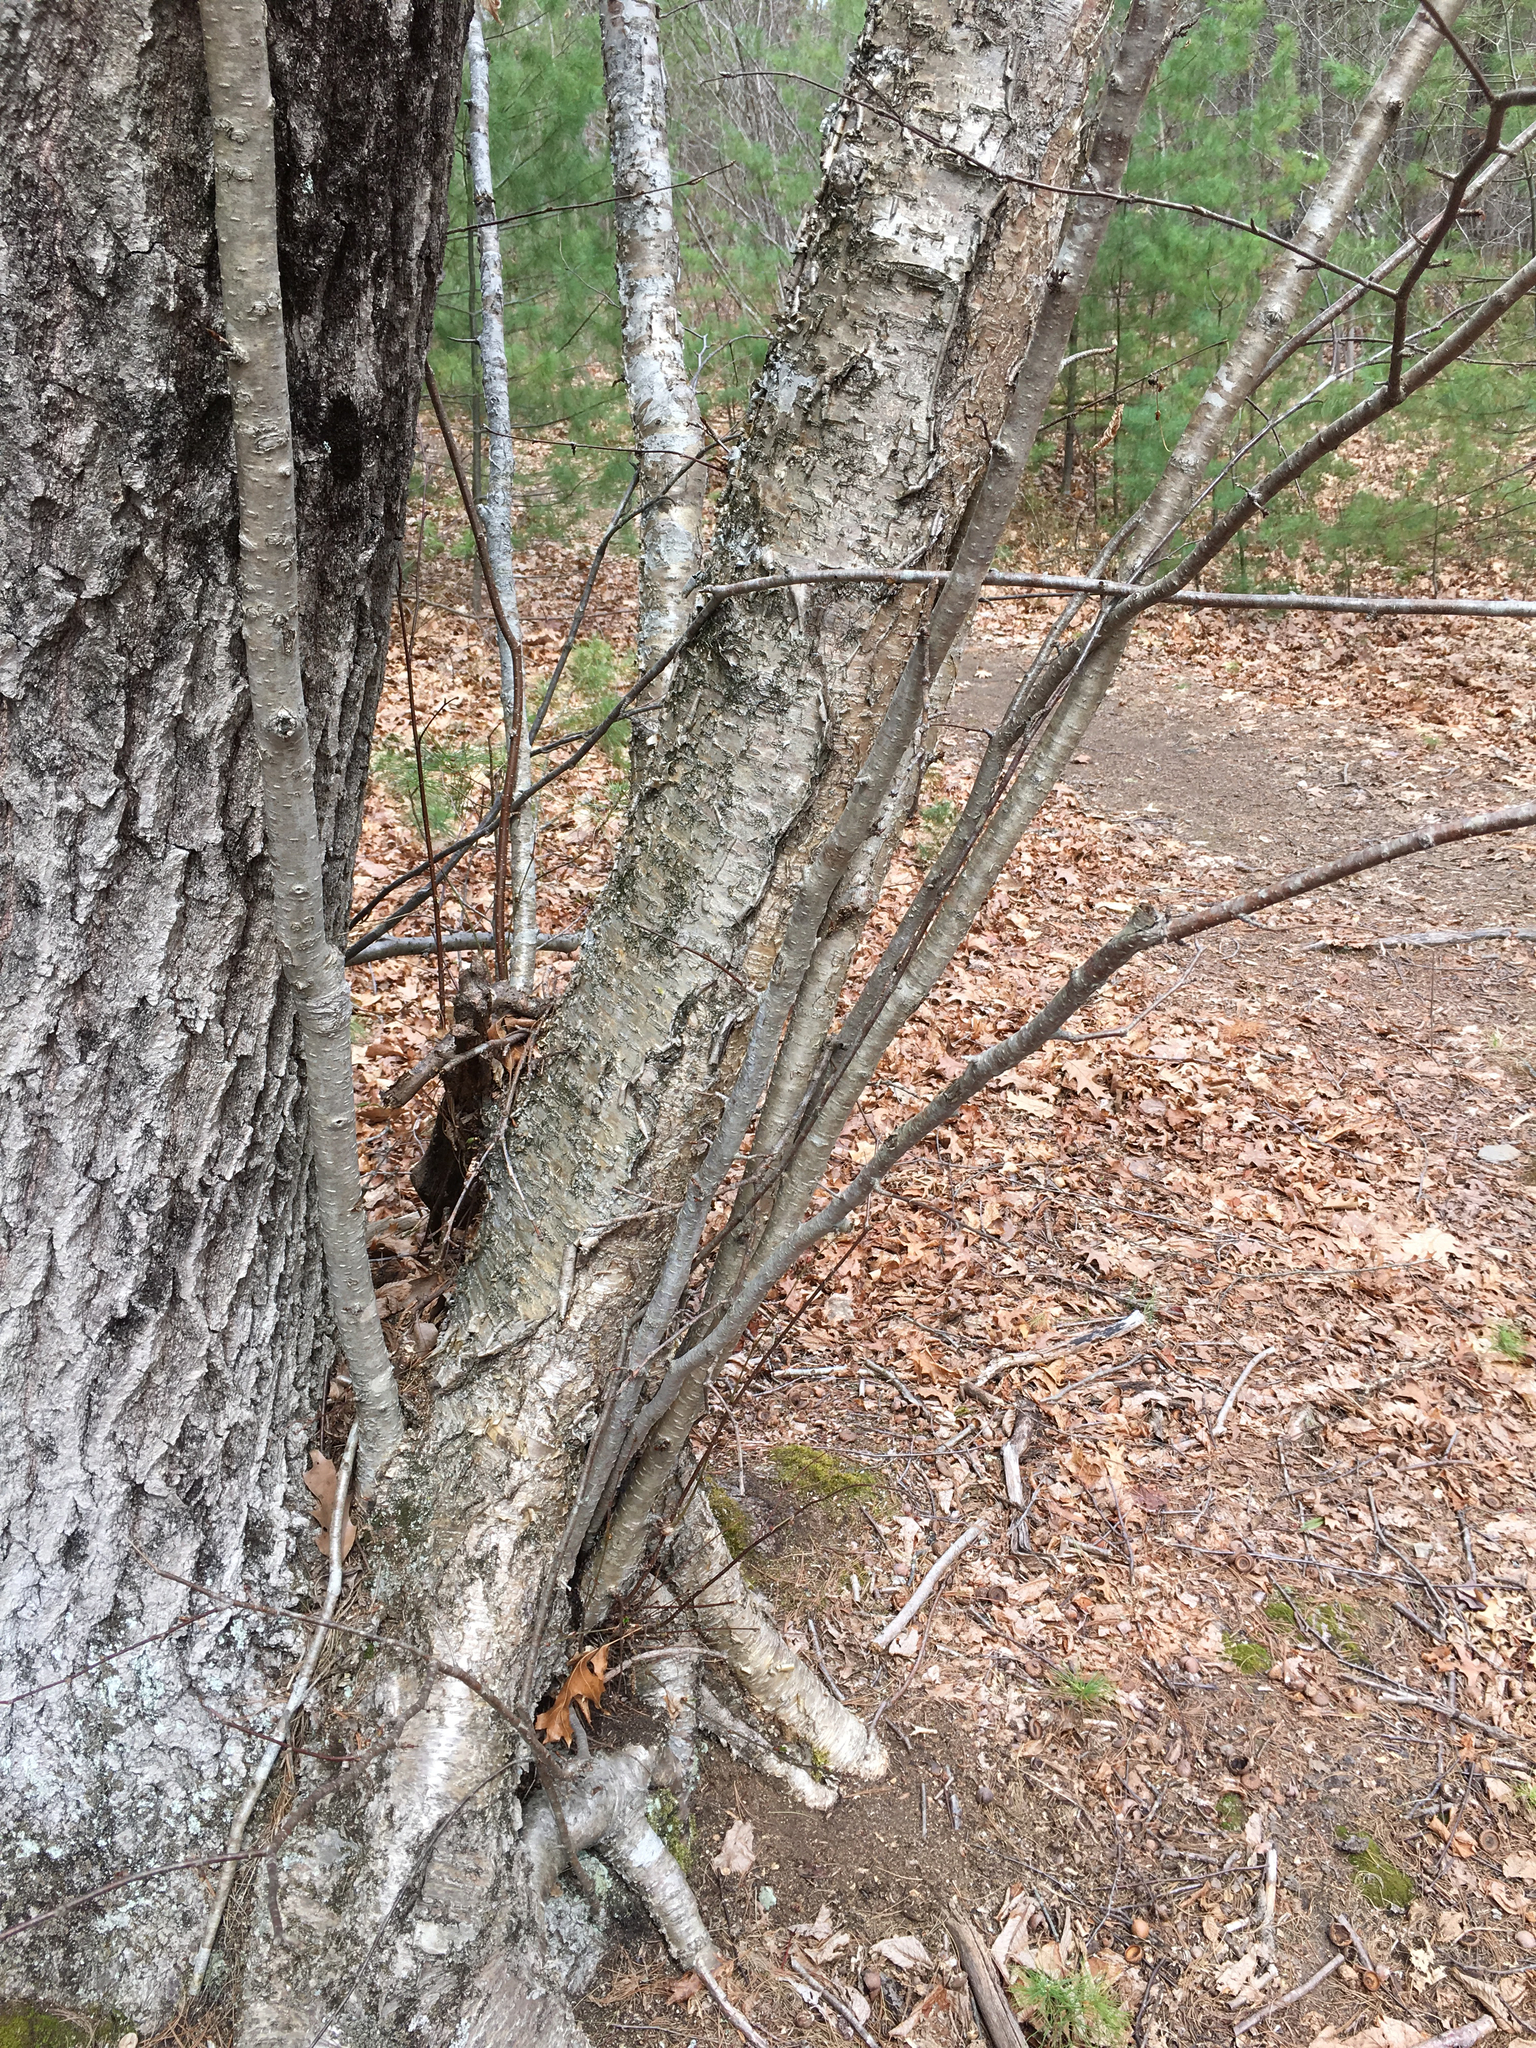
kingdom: Plantae
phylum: Tracheophyta
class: Magnoliopsida
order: Fagales
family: Betulaceae
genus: Betula
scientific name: Betula alleghaniensis
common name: Yellow birch
